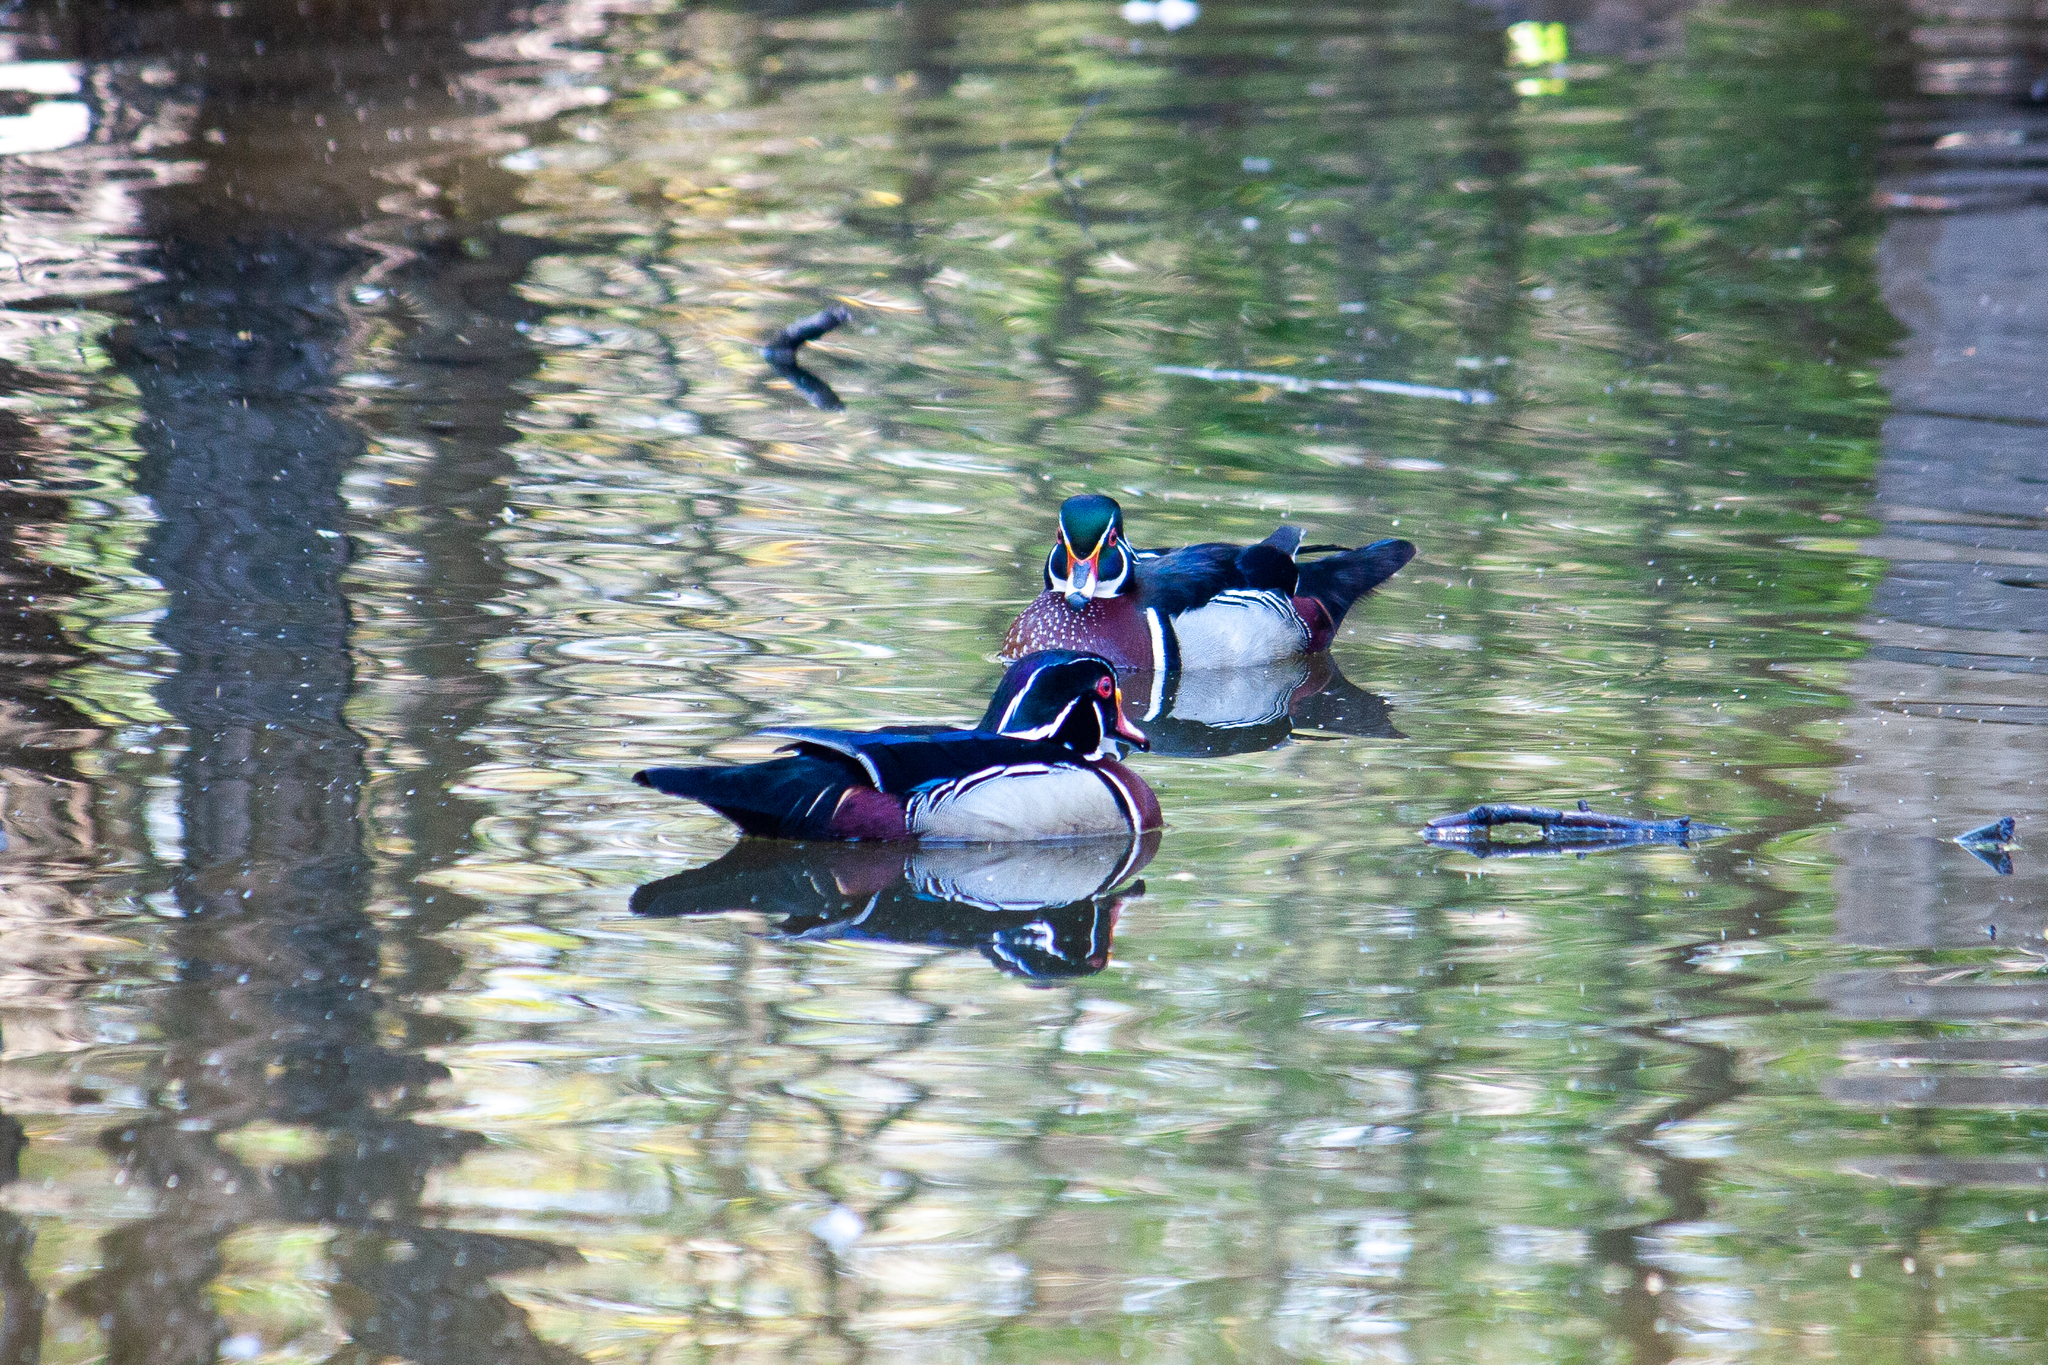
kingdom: Animalia
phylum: Chordata
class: Aves
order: Anseriformes
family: Anatidae
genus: Aix
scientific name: Aix sponsa
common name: Wood duck
